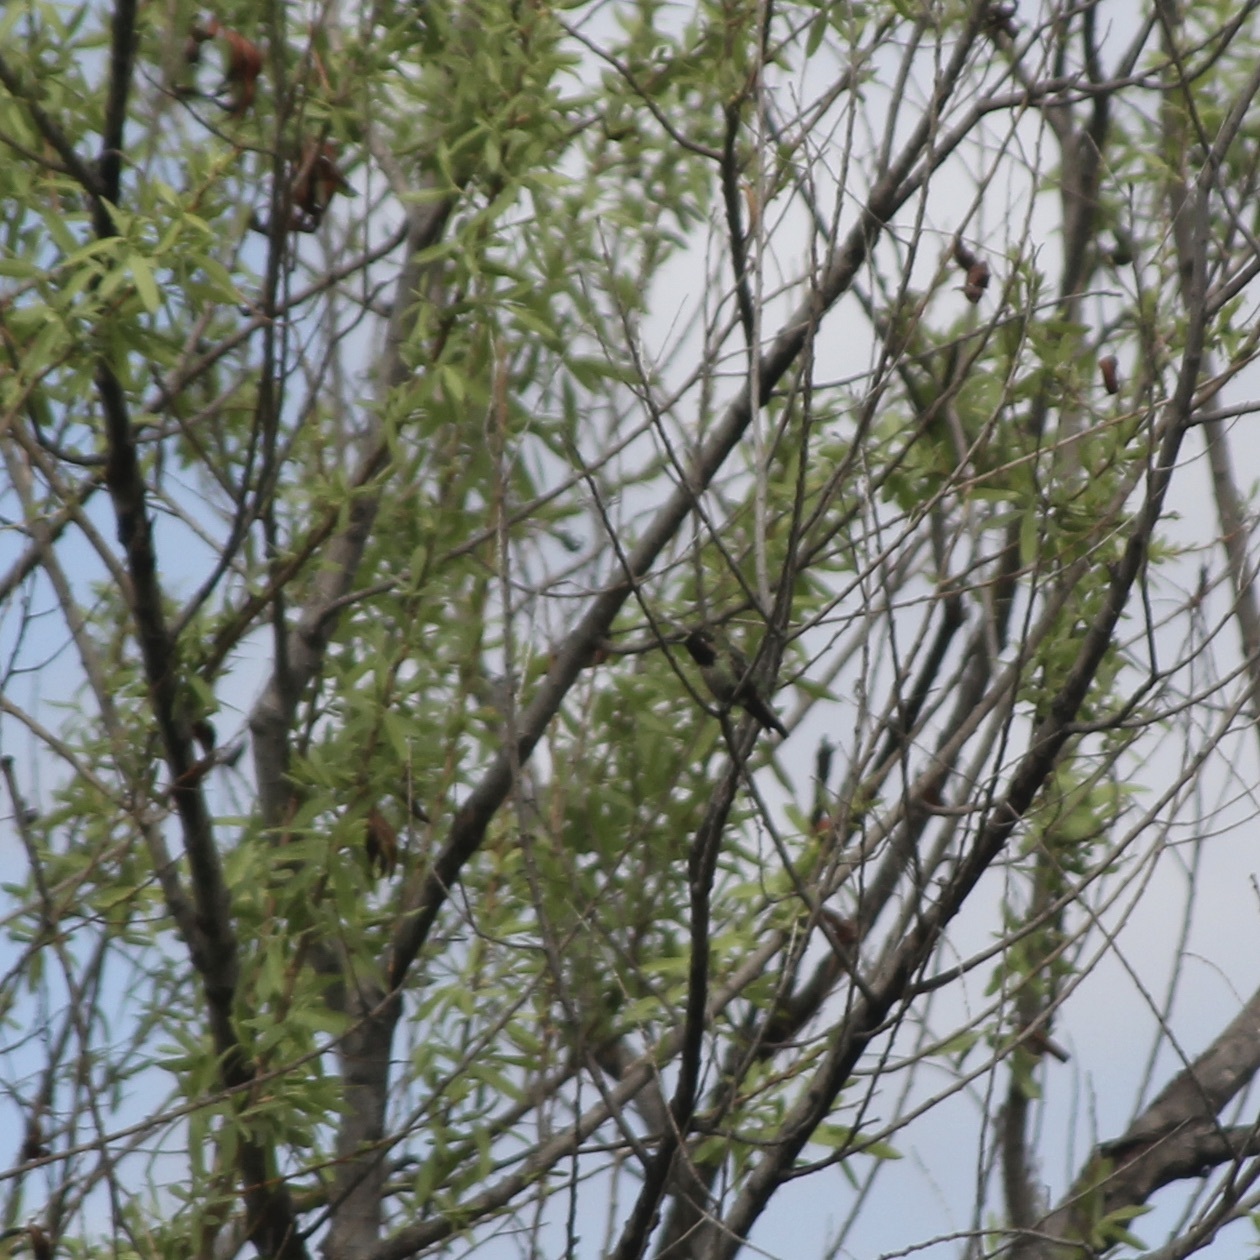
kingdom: Animalia
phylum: Chordata
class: Aves
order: Apodiformes
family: Trochilidae
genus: Calypte
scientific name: Calypte anna
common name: Anna's hummingbird
